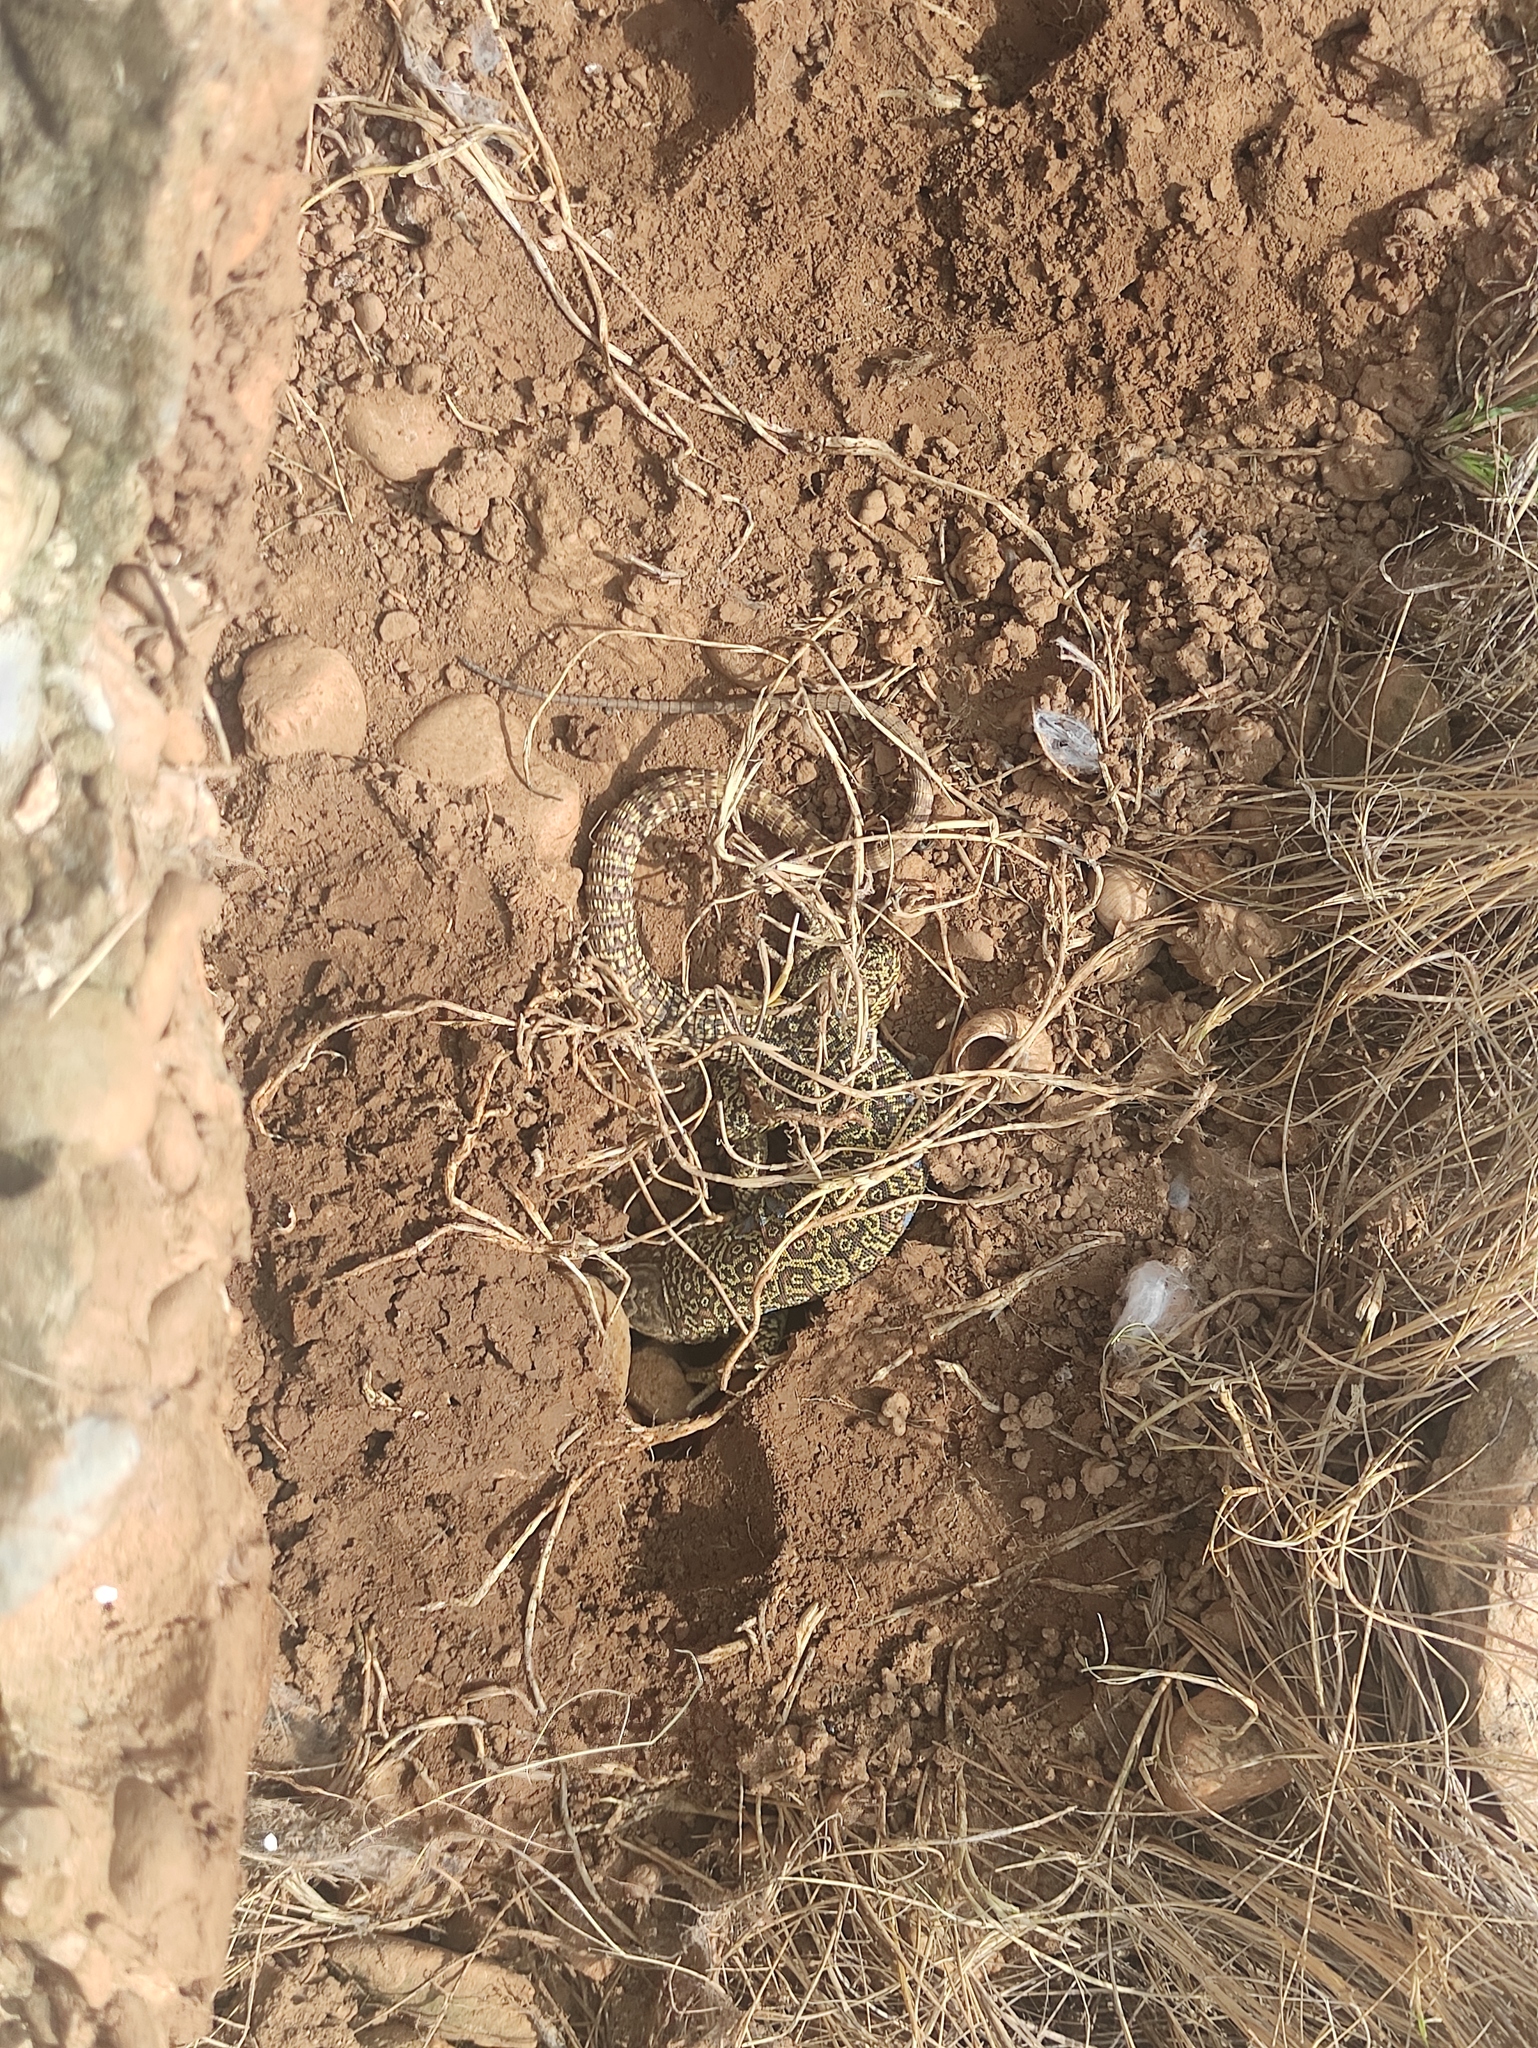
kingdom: Animalia
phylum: Chordata
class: Squamata
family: Lacertidae
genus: Timon
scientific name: Timon lepidus
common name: Ocellated lizard
